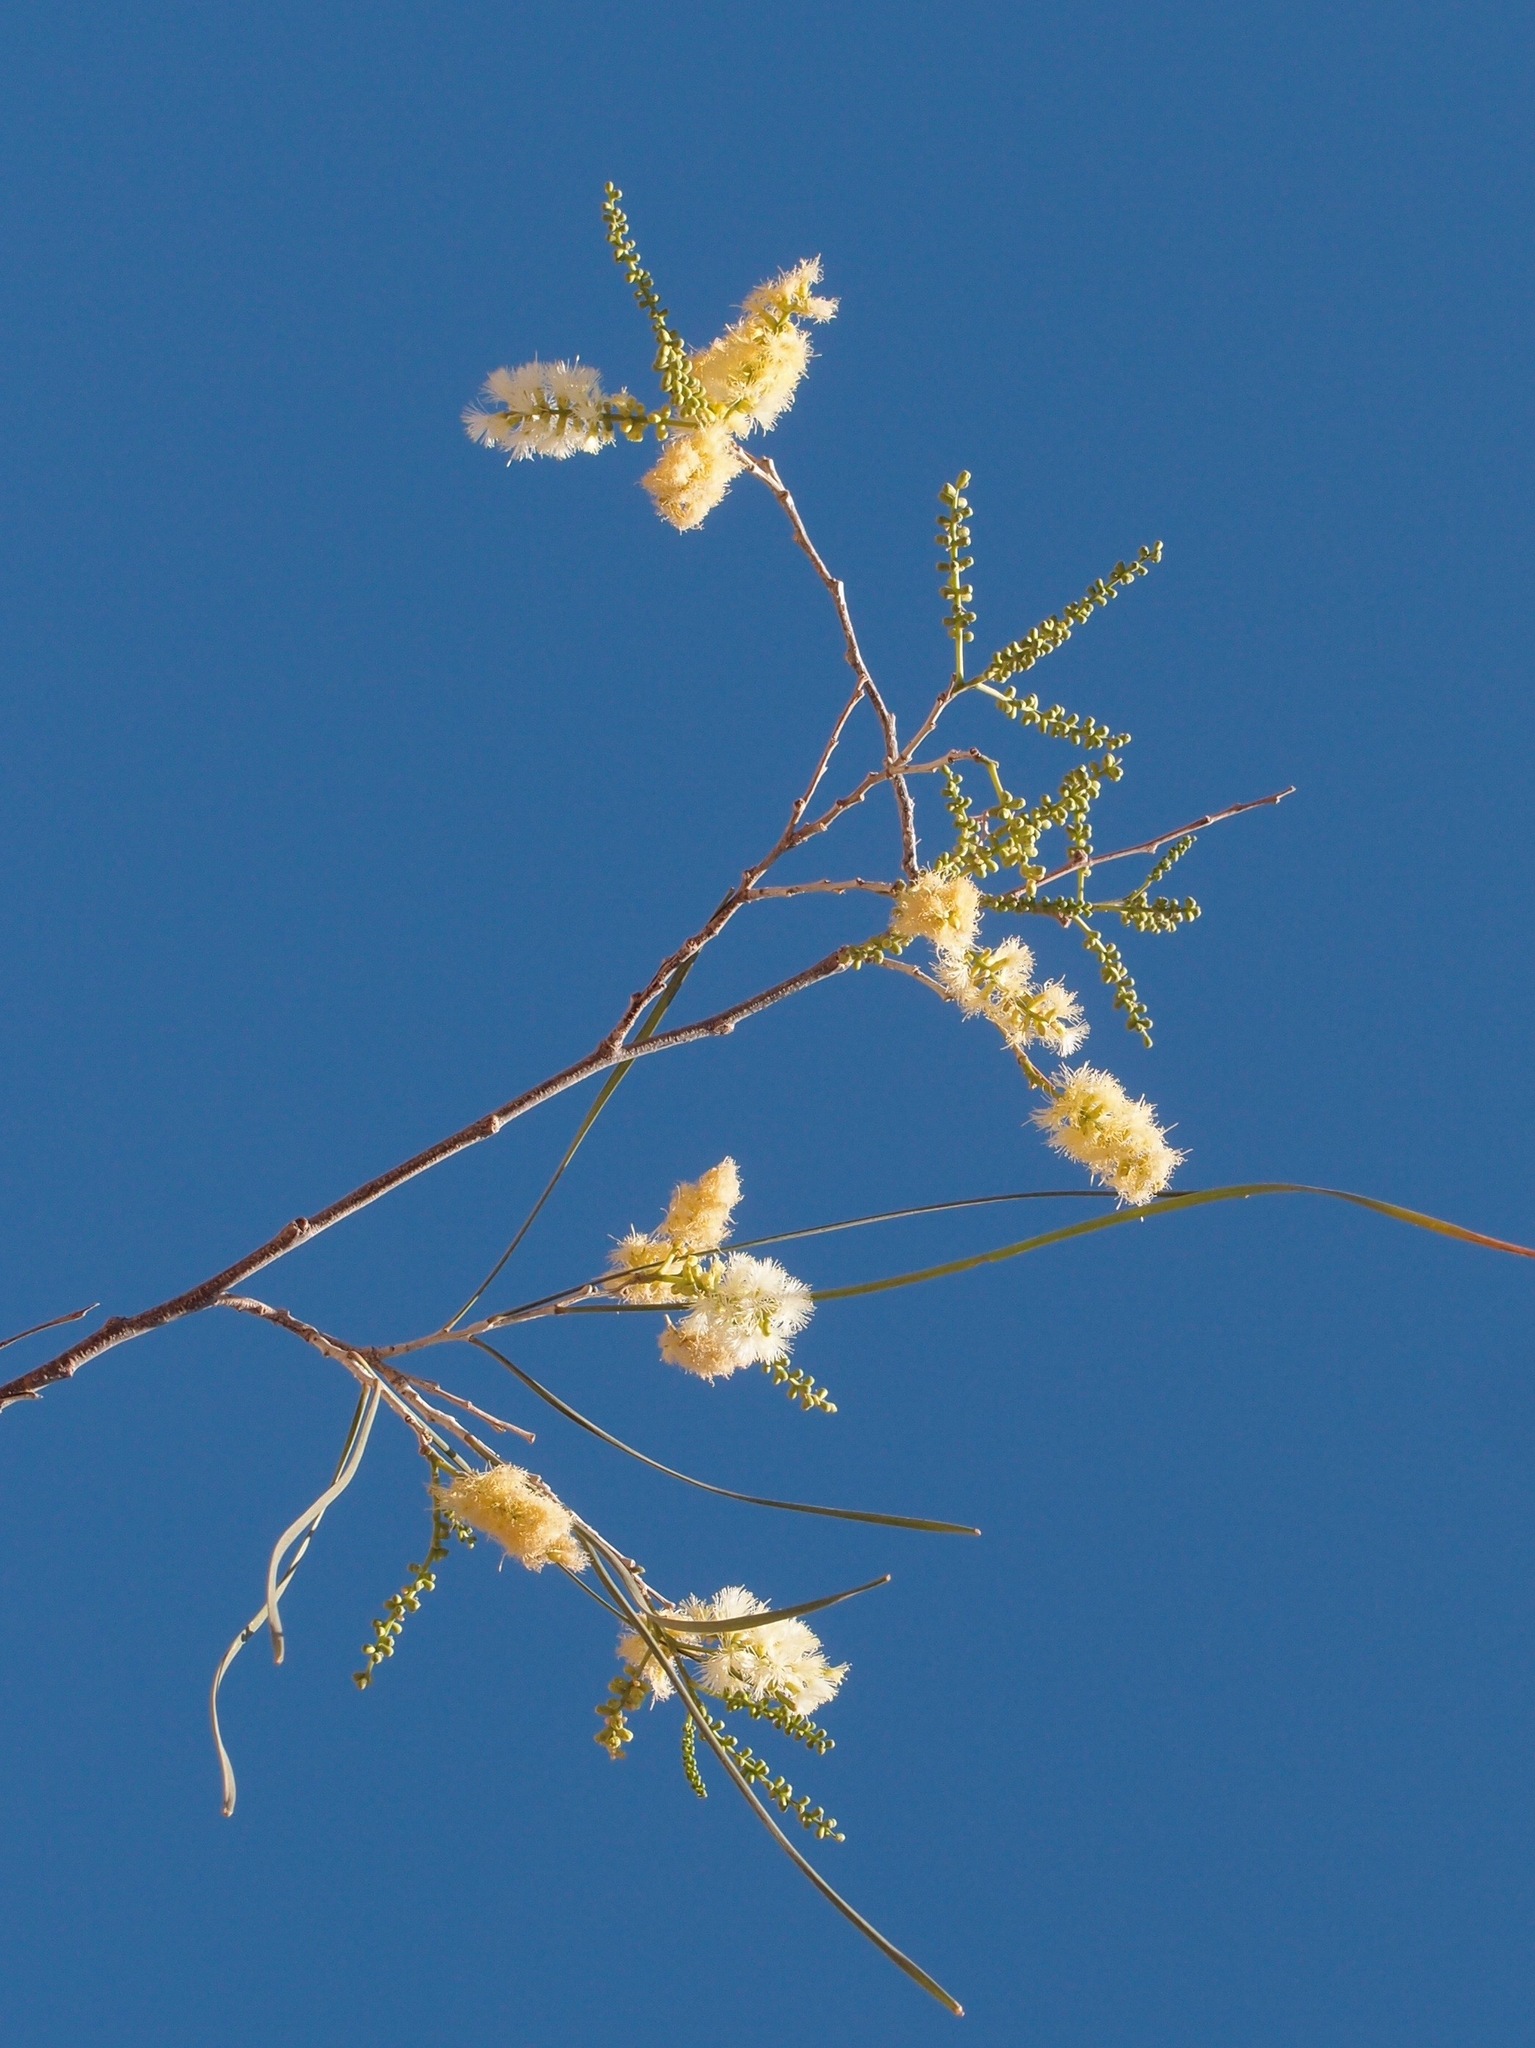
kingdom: Plantae
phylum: Tracheophyta
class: Magnoliopsida
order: Fabales
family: Fabaceae
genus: Mariosousa
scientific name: Mariosousa heterophylla
